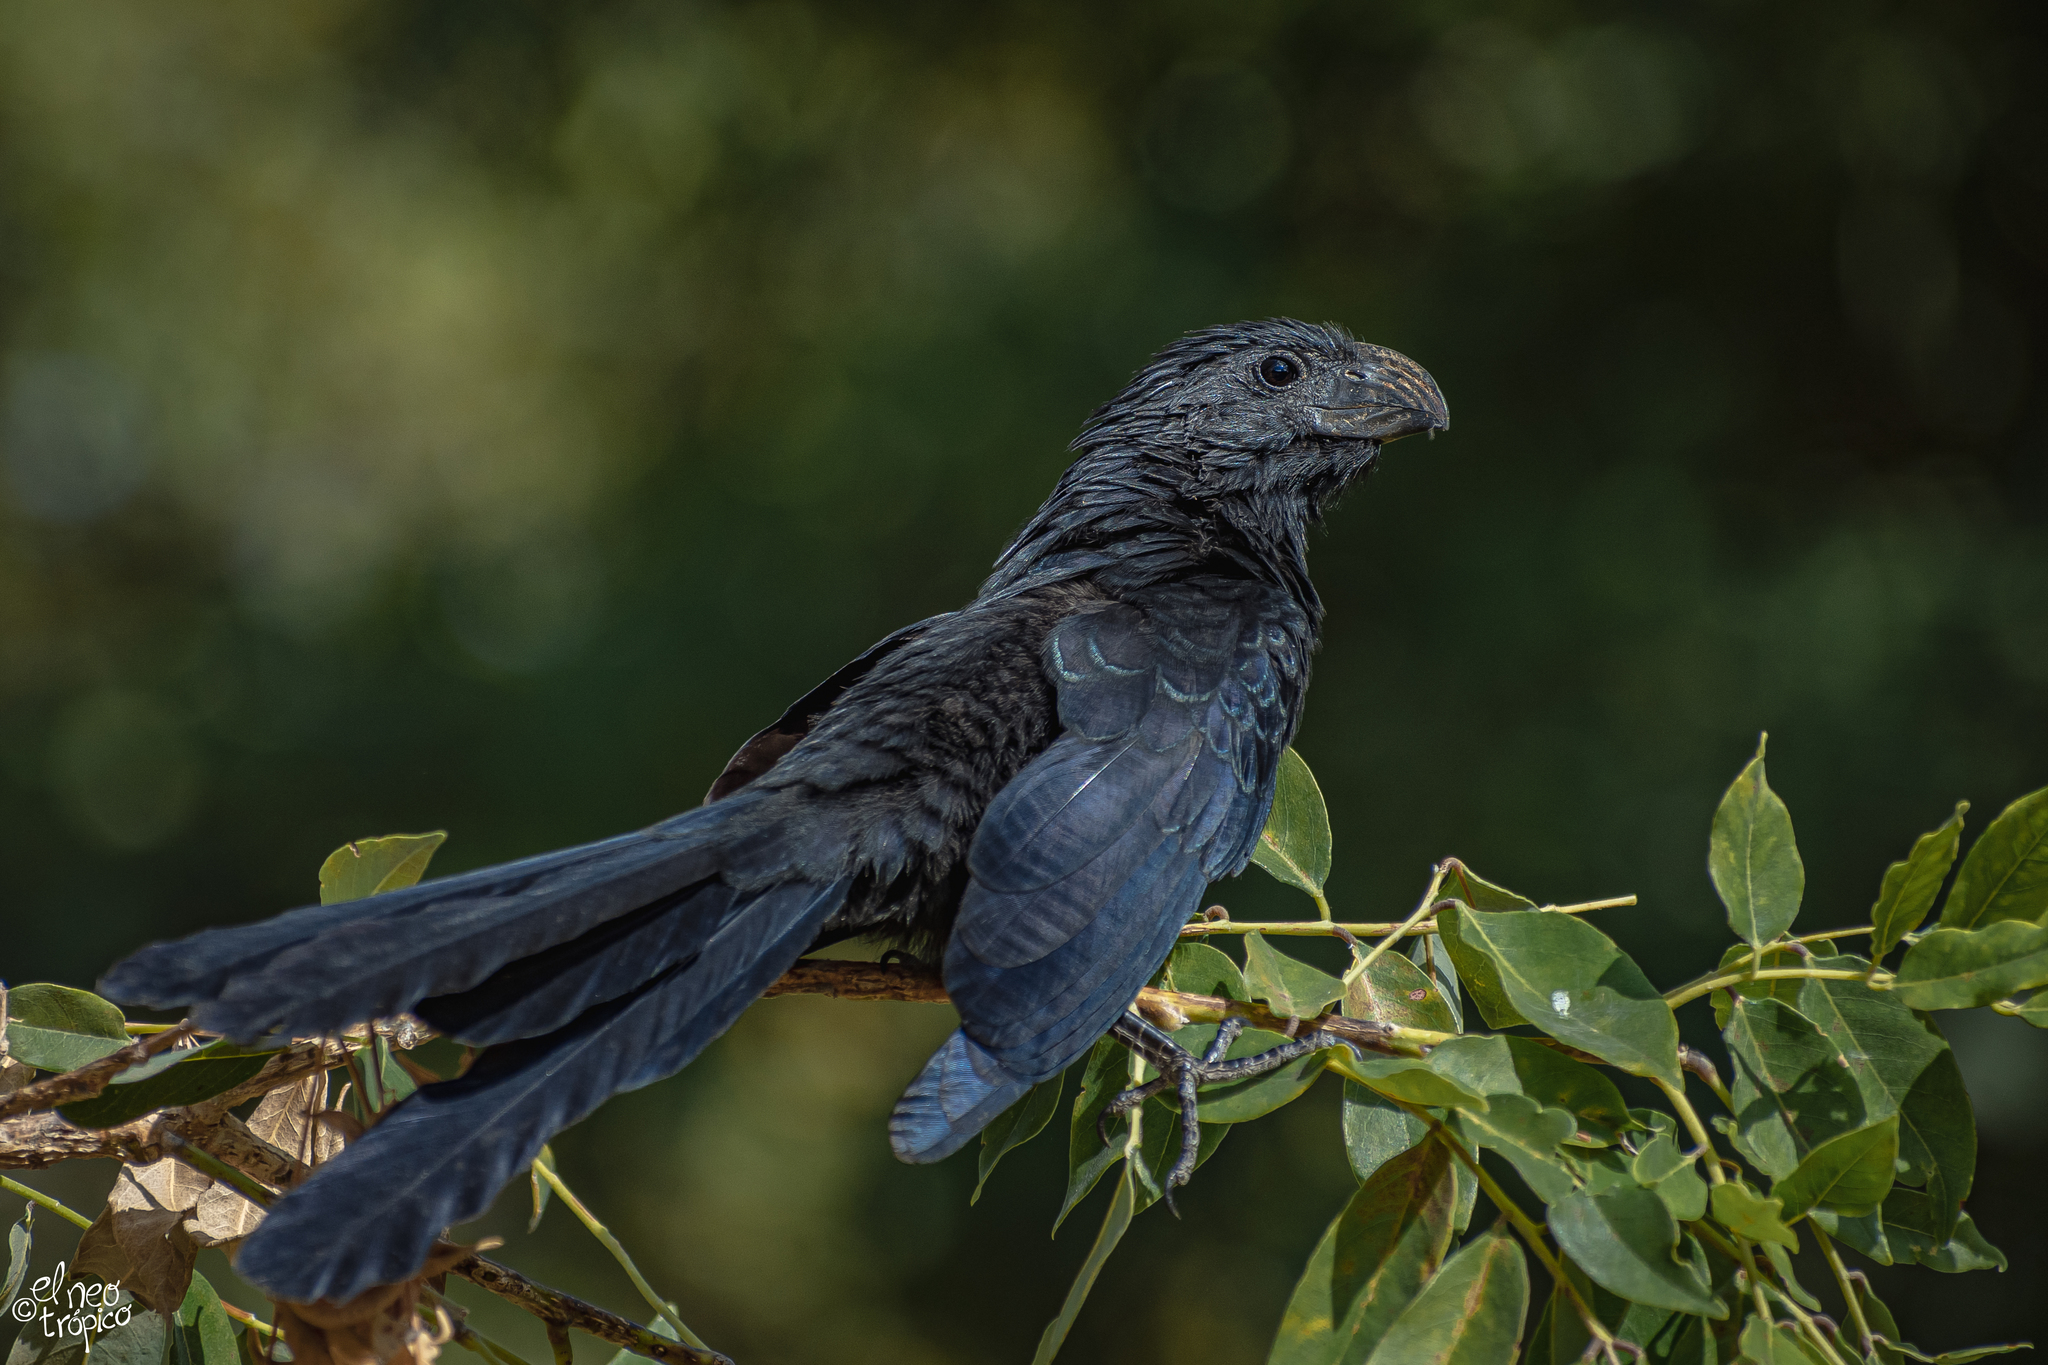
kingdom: Animalia
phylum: Chordata
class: Aves
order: Cuculiformes
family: Cuculidae
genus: Crotophaga
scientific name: Crotophaga sulcirostris
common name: Groove-billed ani
